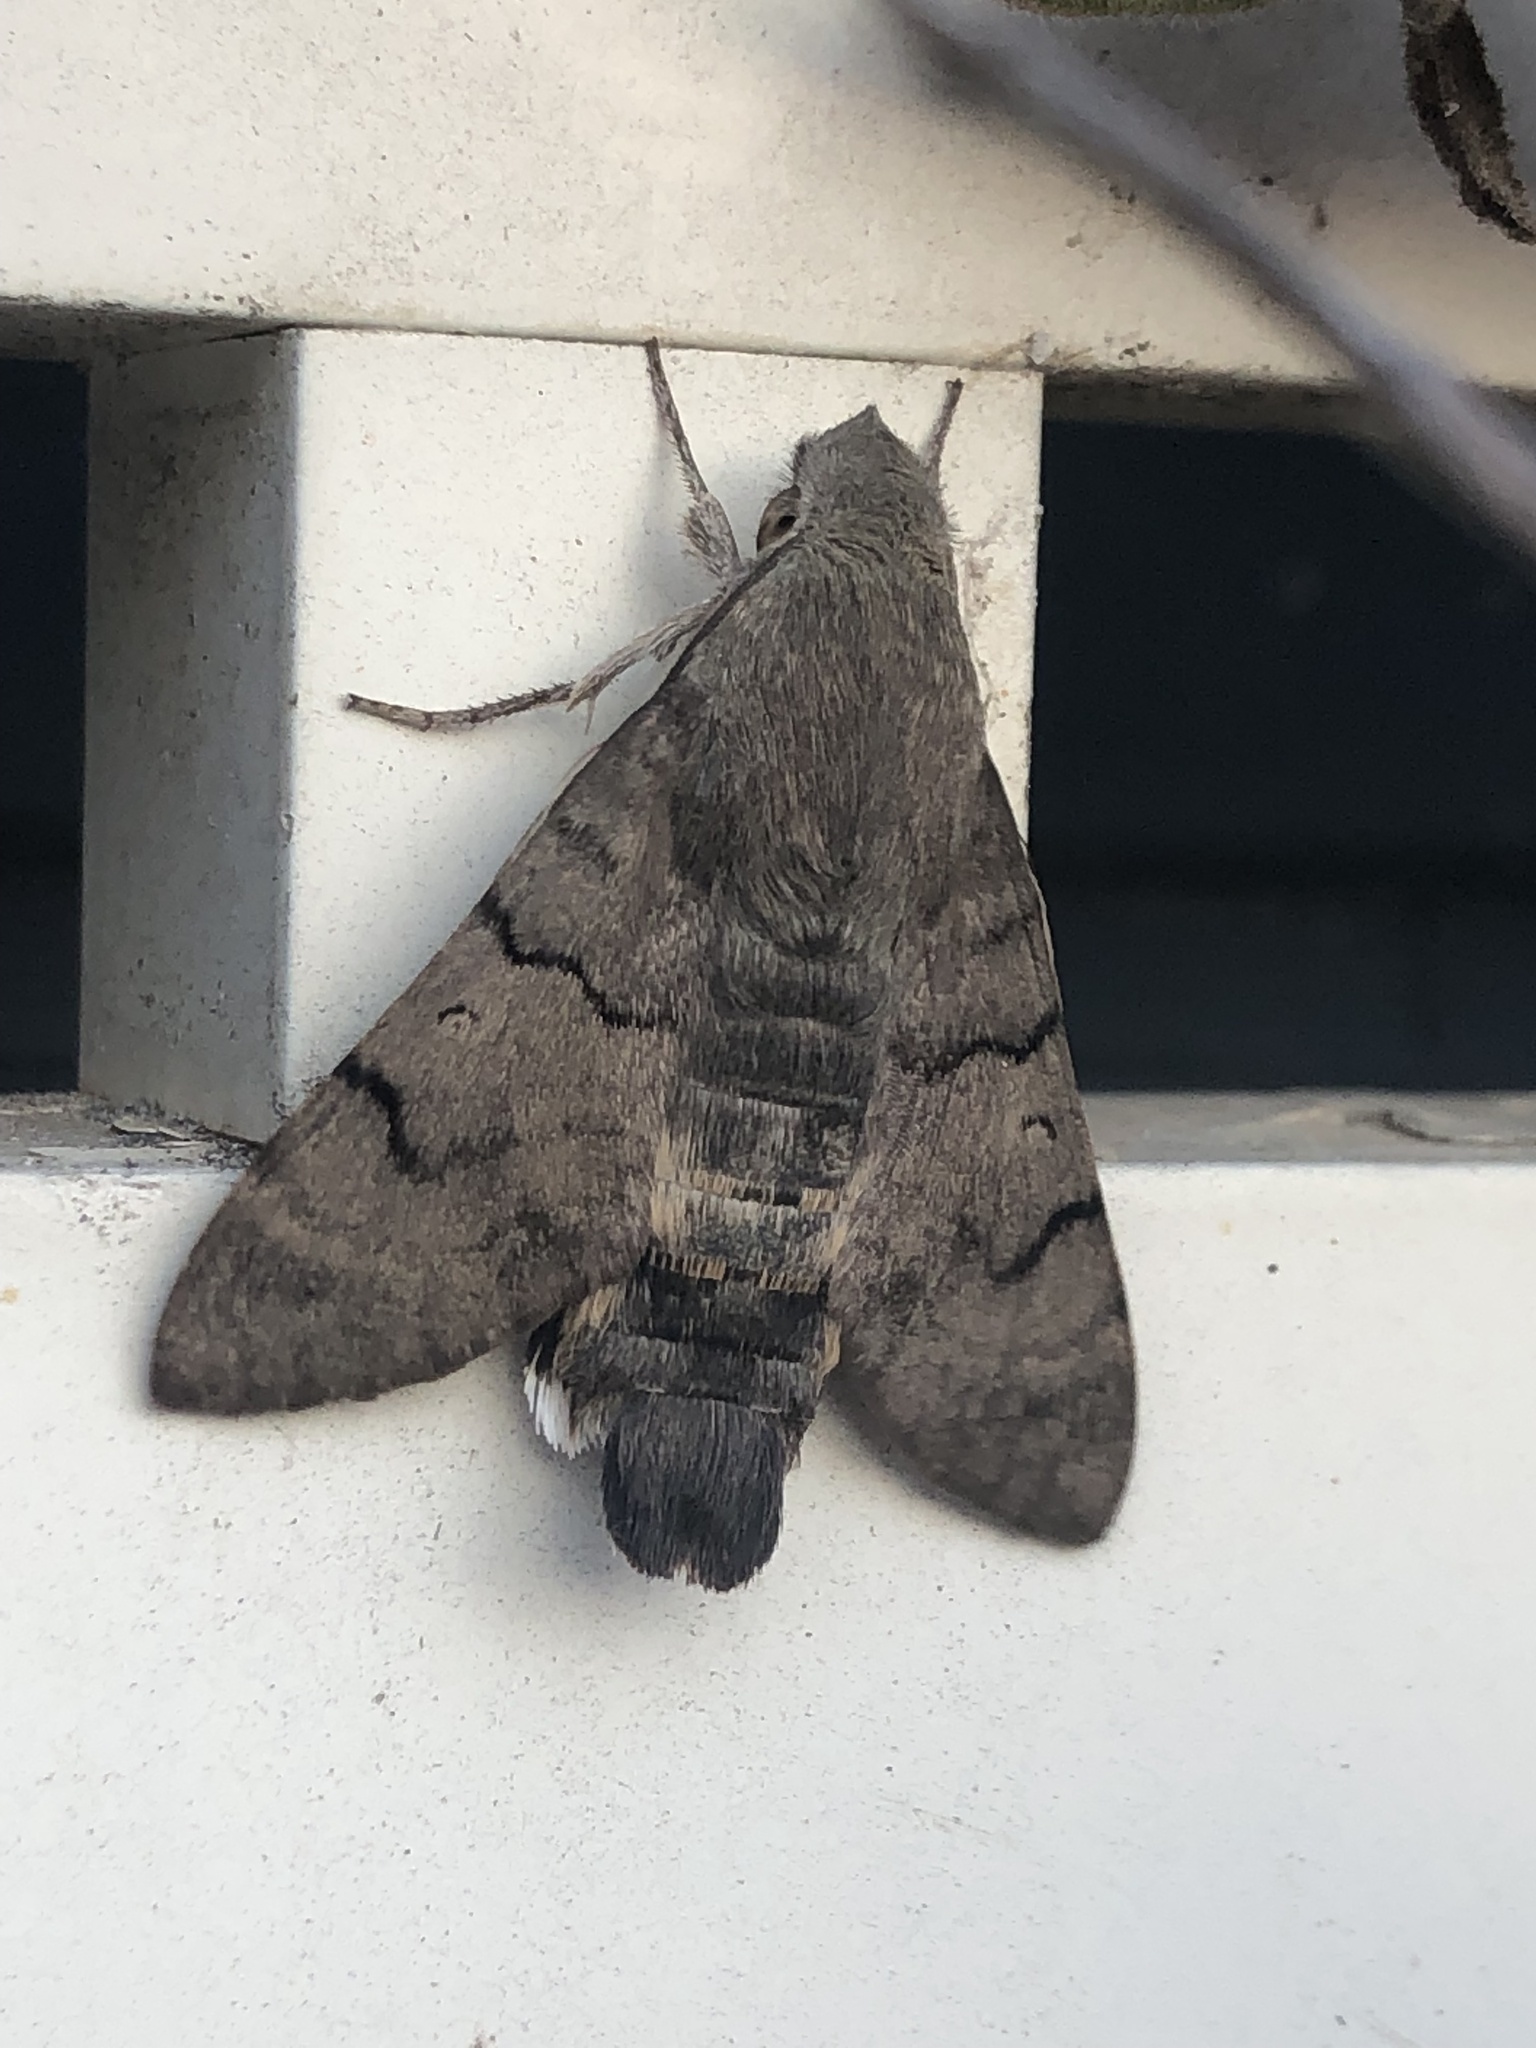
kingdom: Animalia
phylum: Arthropoda
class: Insecta
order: Lepidoptera
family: Sphingidae
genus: Macroglossum
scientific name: Macroglossum stellatarum
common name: Humming-bird hawk-moth
